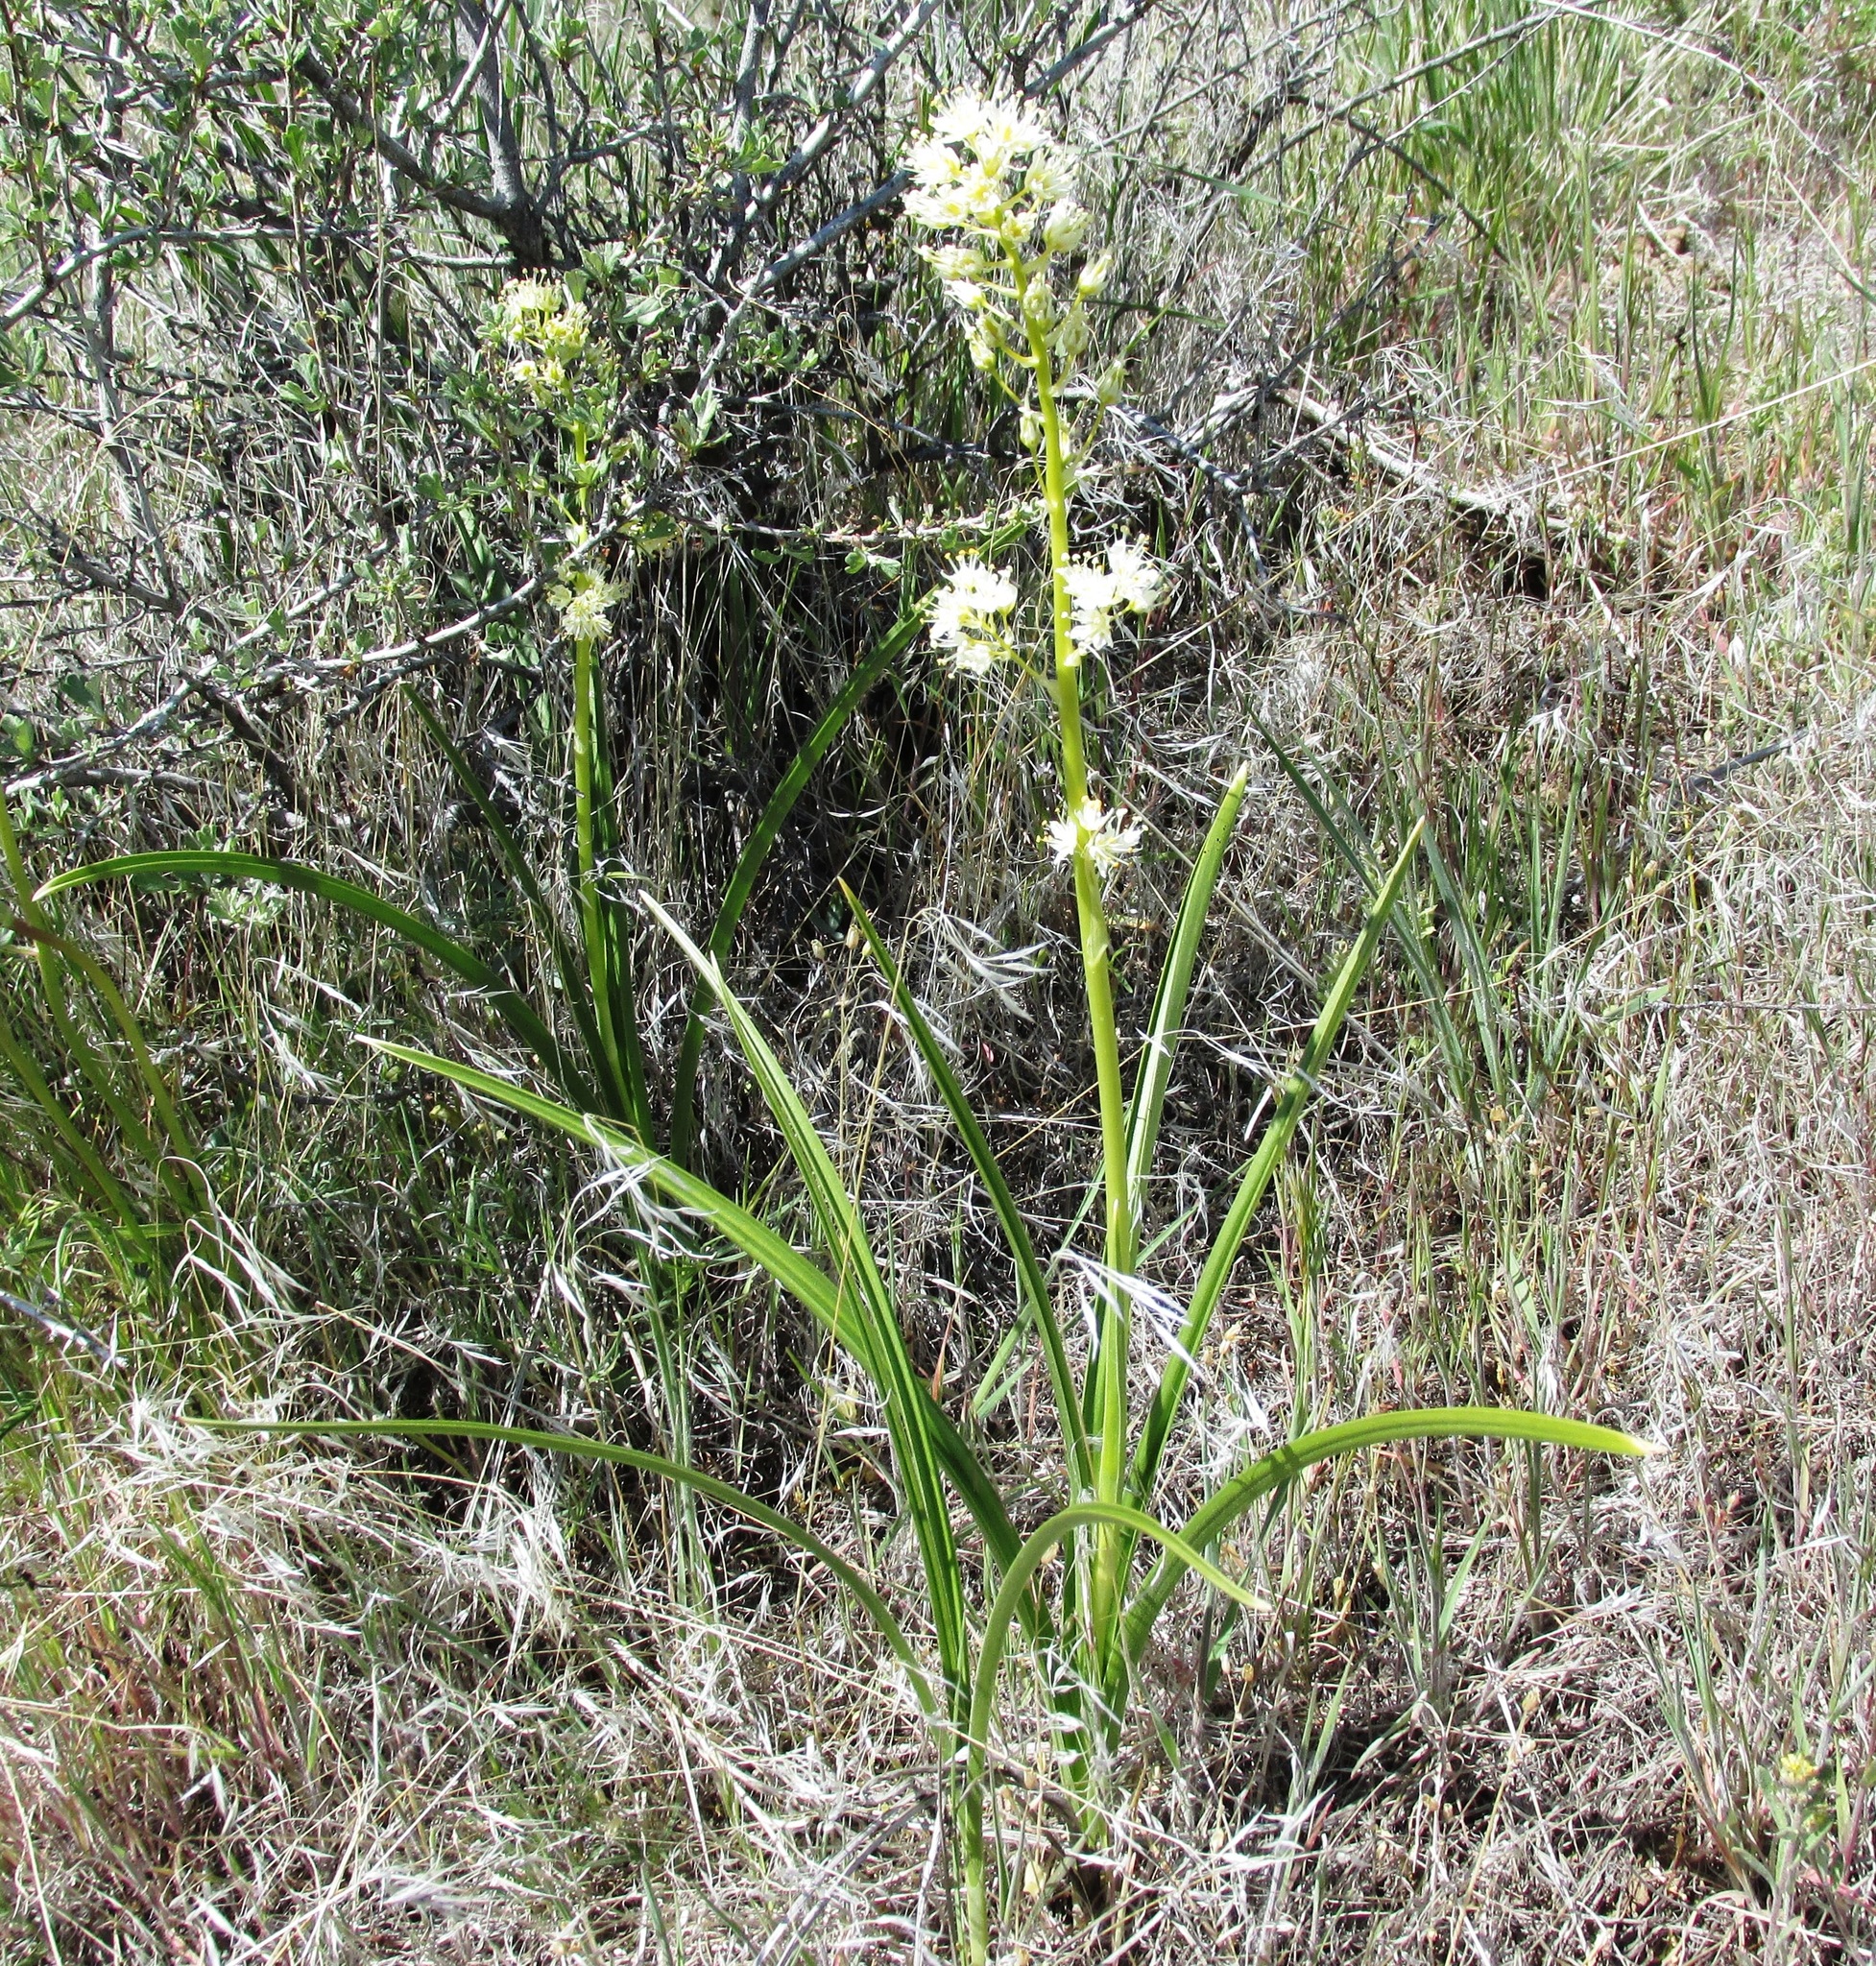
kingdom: Plantae
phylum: Tracheophyta
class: Liliopsida
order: Liliales
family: Melanthiaceae
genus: Toxicoscordion
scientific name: Toxicoscordion paniculatum
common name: Foothill death camas
